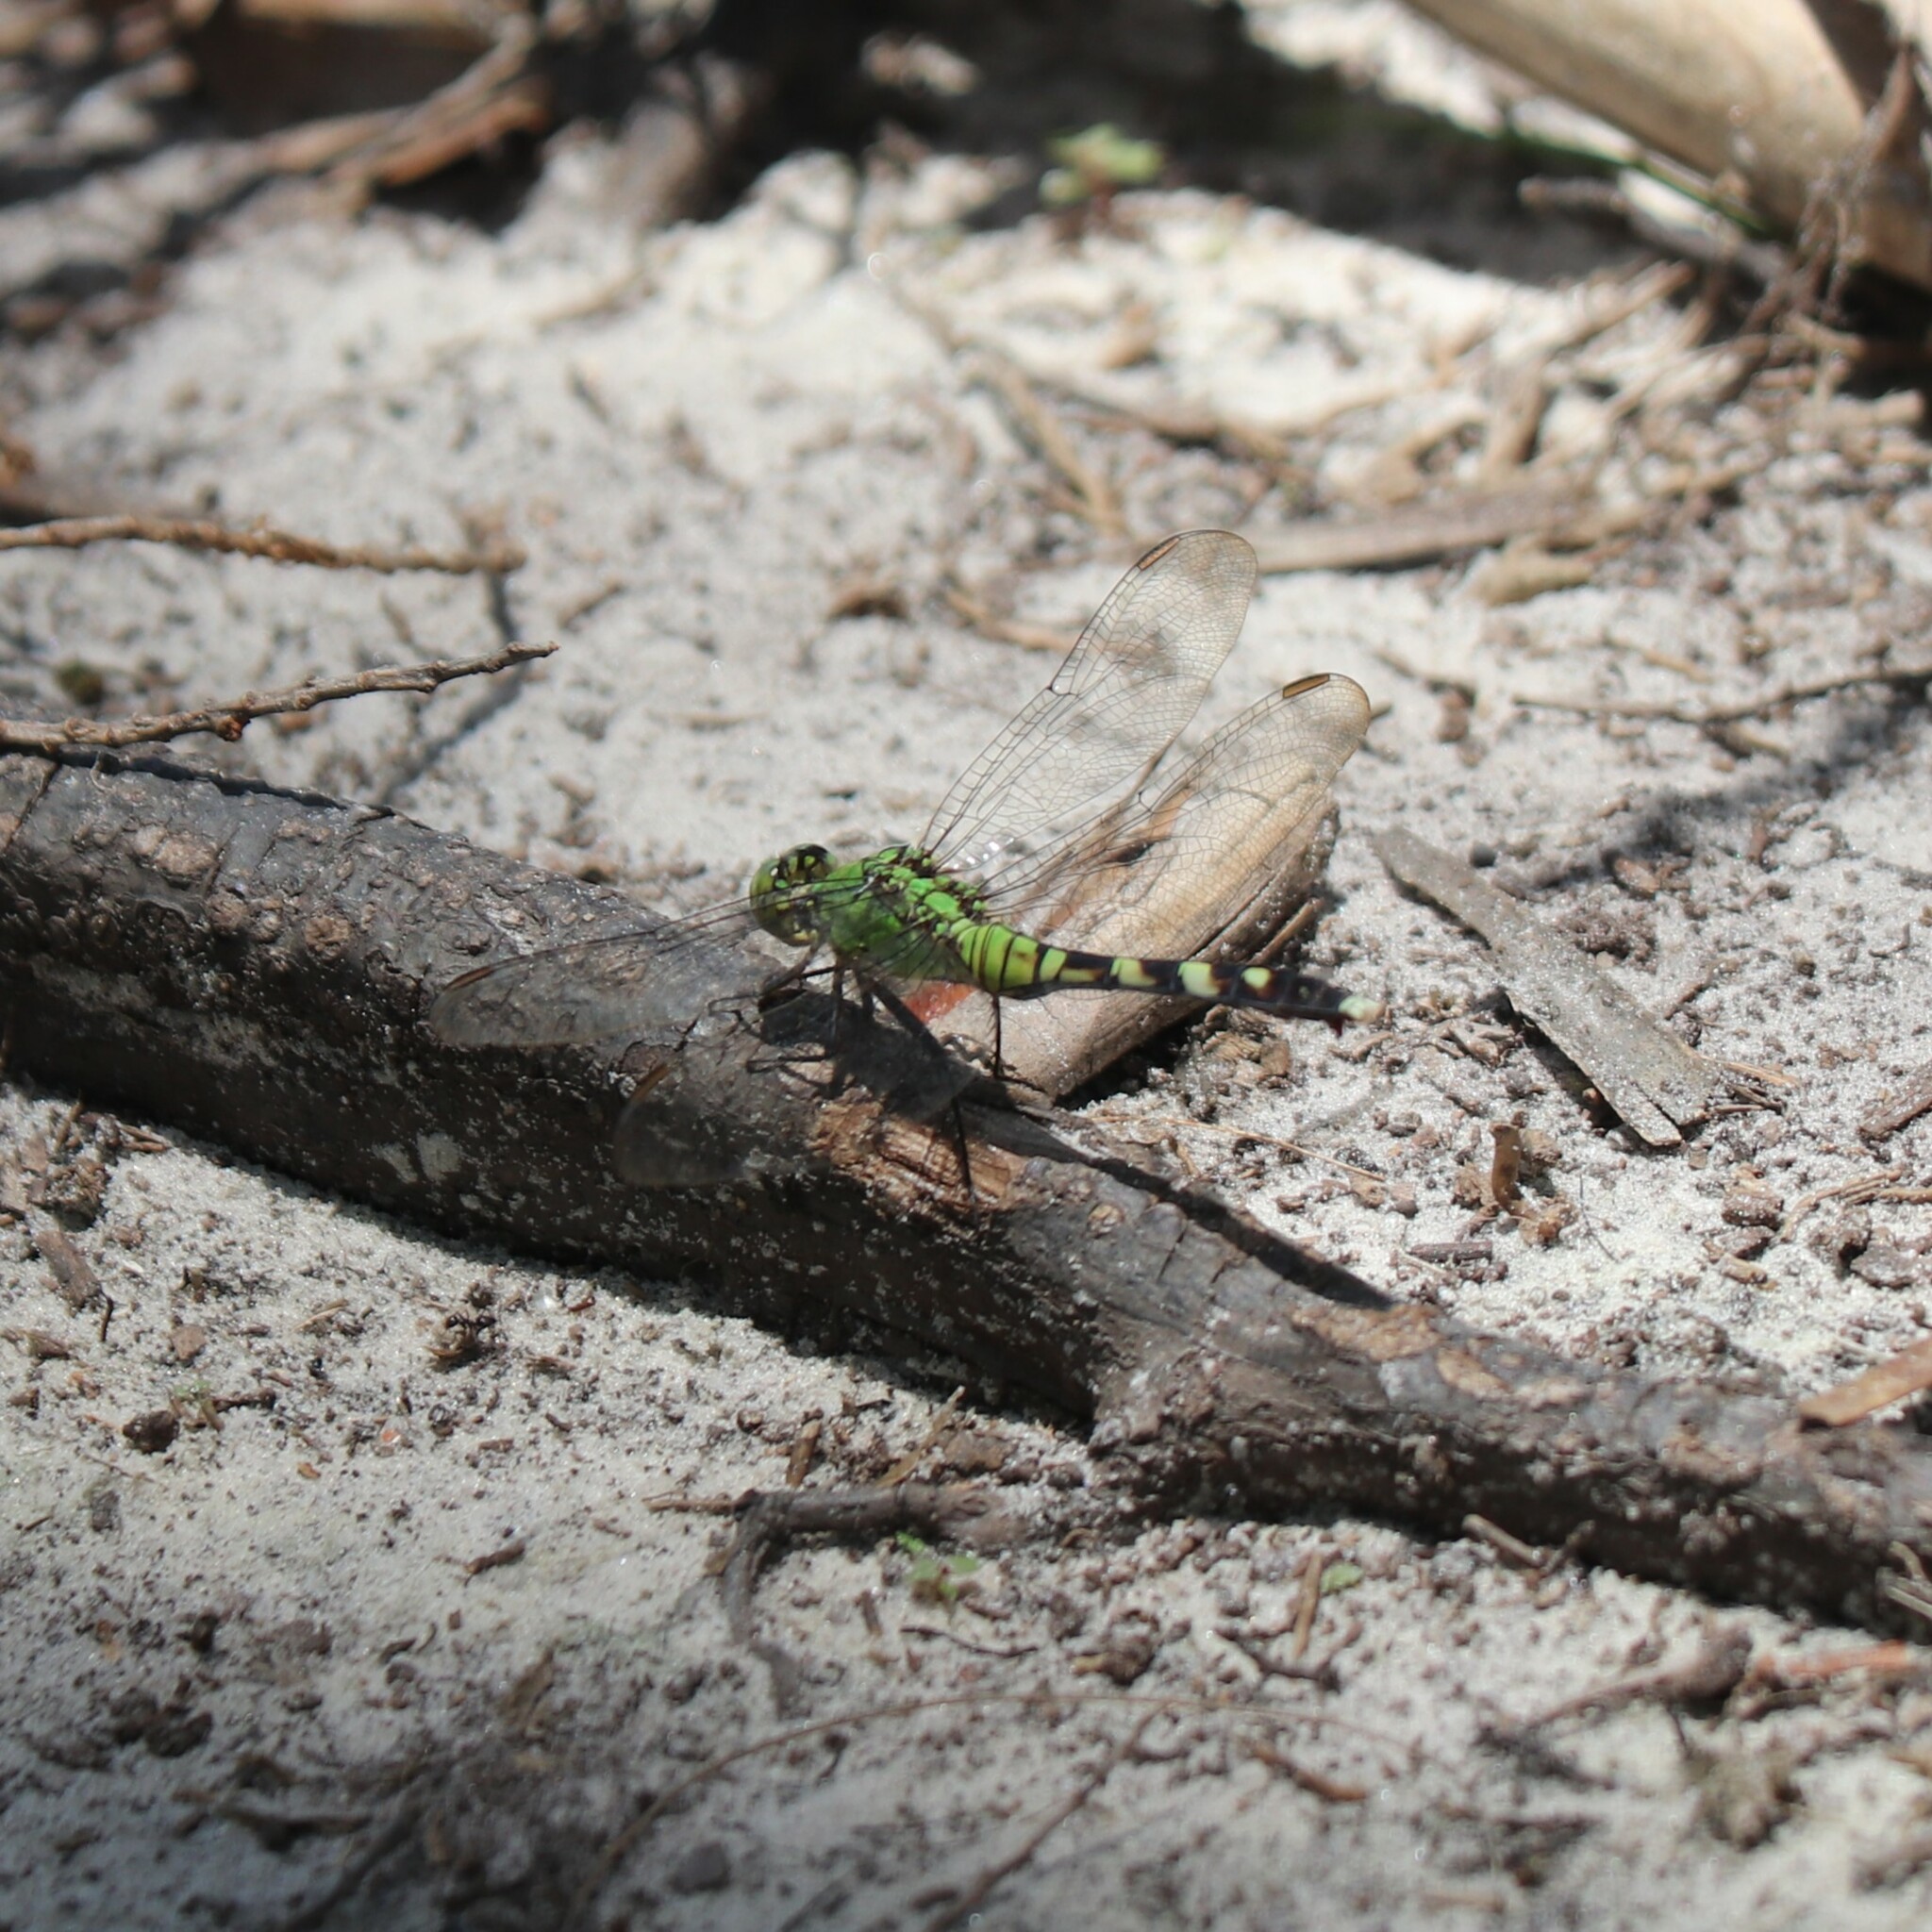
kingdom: Animalia
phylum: Arthropoda
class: Insecta
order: Odonata
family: Libellulidae
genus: Erythemis
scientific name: Erythemis simplicicollis
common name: Eastern pondhawk
